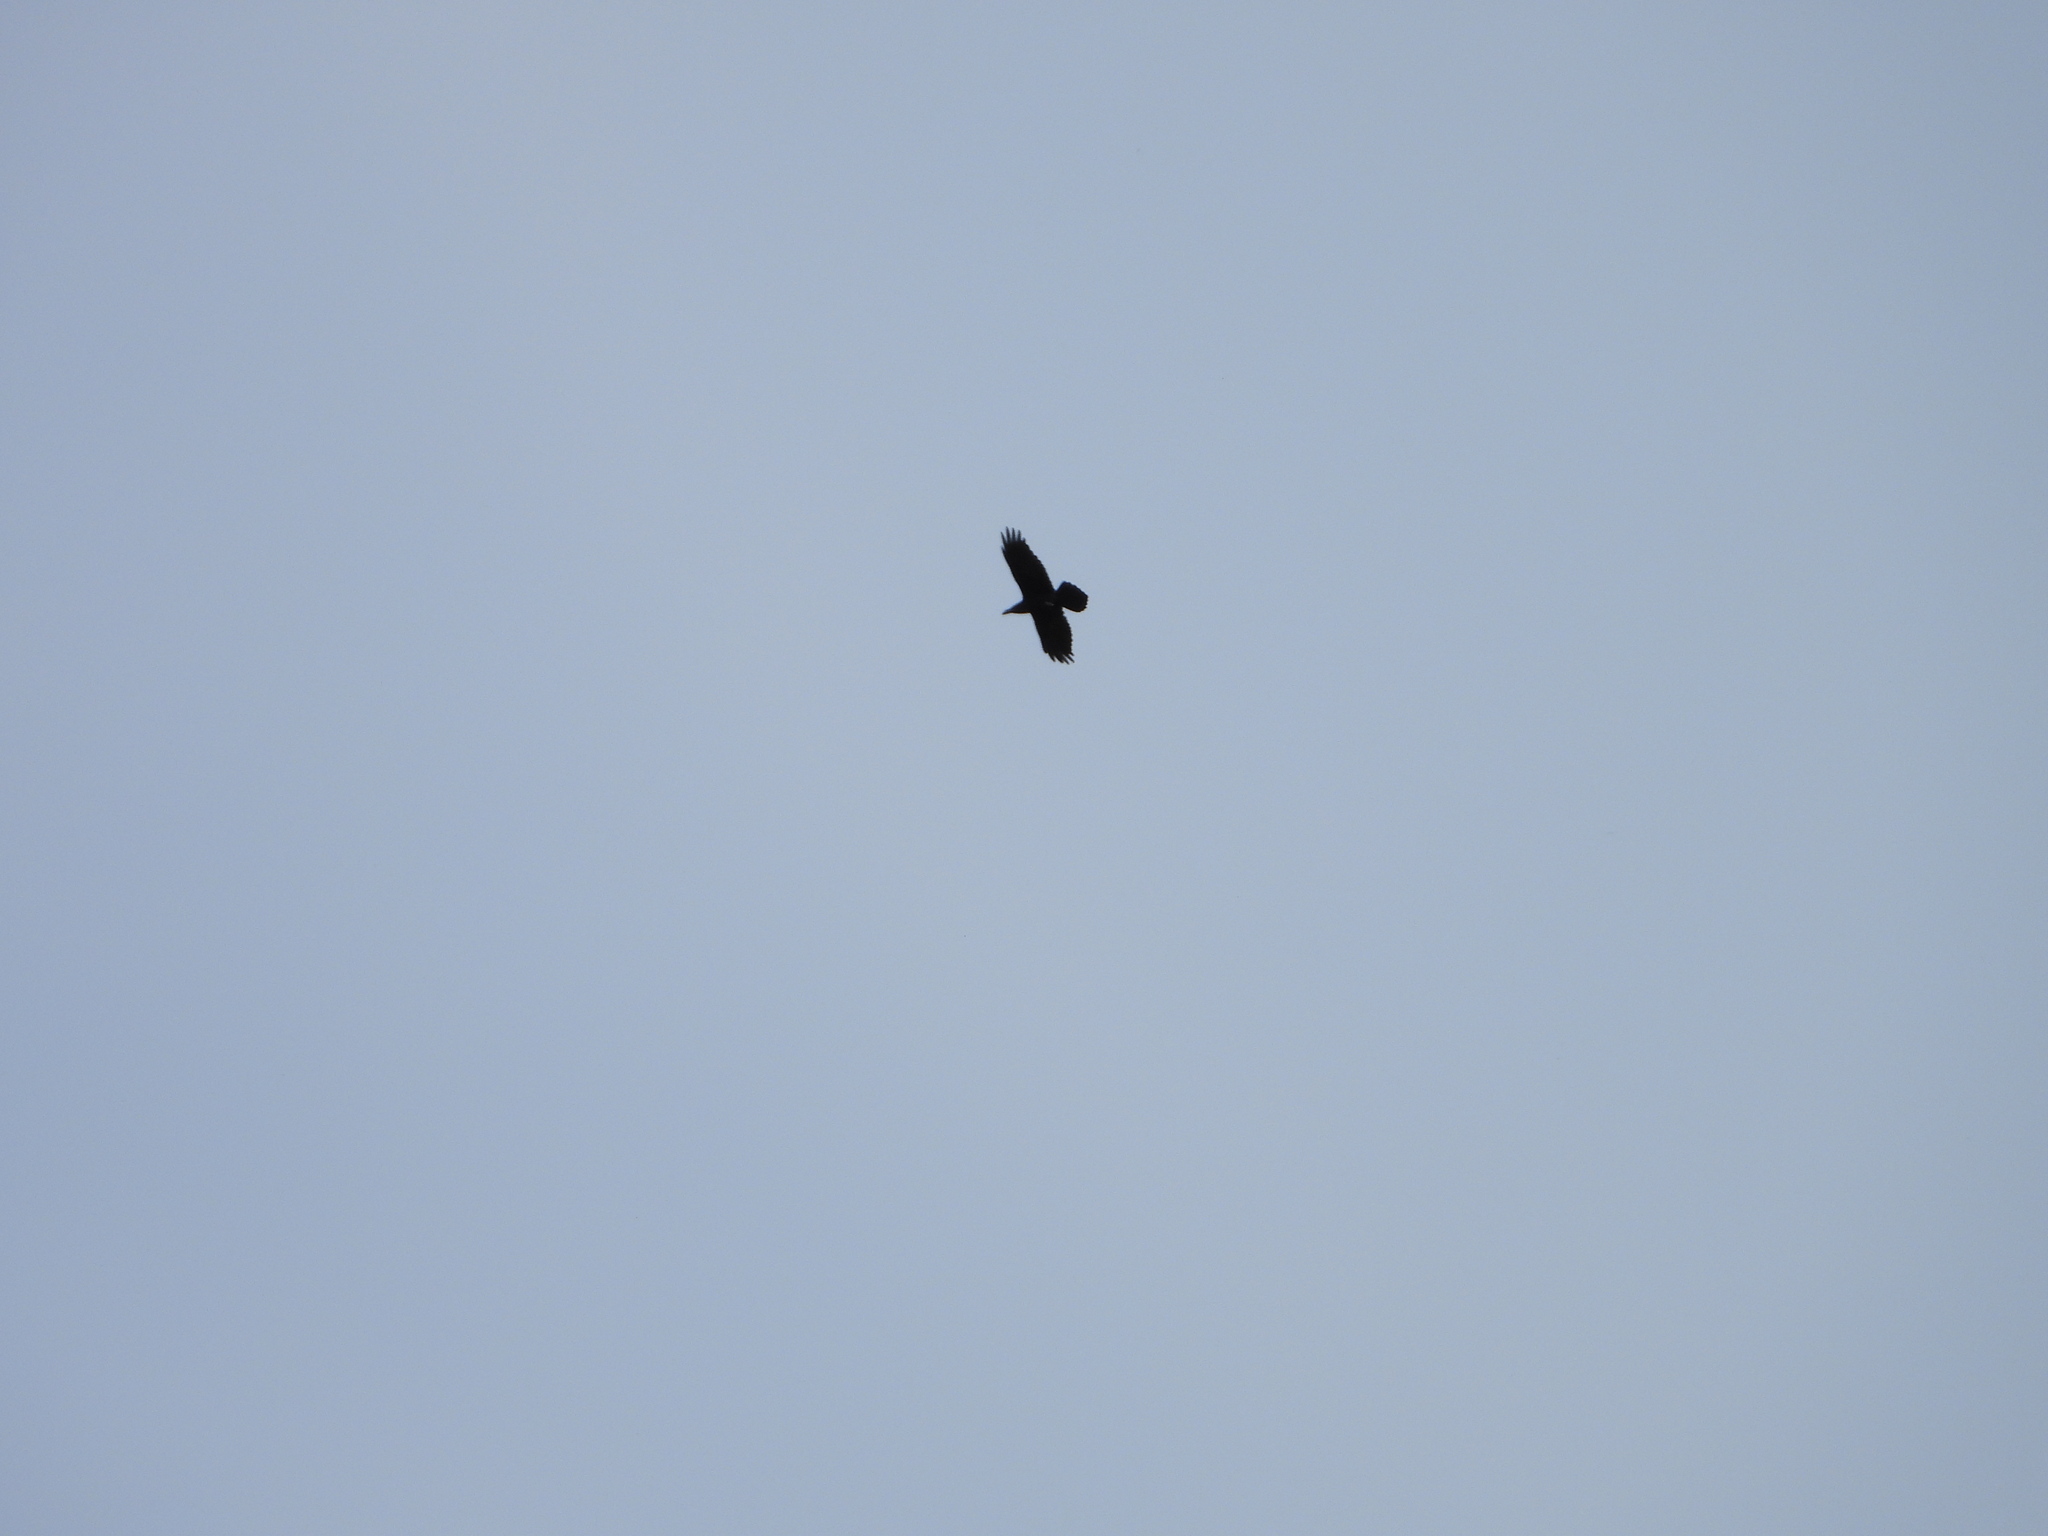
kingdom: Animalia
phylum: Chordata
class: Aves
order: Passeriformes
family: Corvidae
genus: Corvus
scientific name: Corvus corax
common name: Common raven
